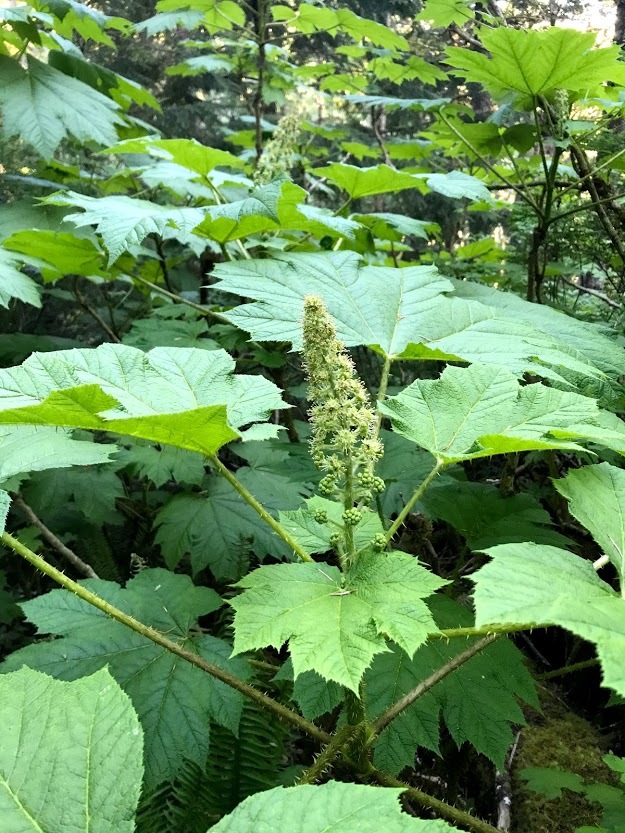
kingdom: Plantae
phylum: Tracheophyta
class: Magnoliopsida
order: Apiales
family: Araliaceae
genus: Oplopanax
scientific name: Oplopanax horridus
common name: Devil's walking-stick
